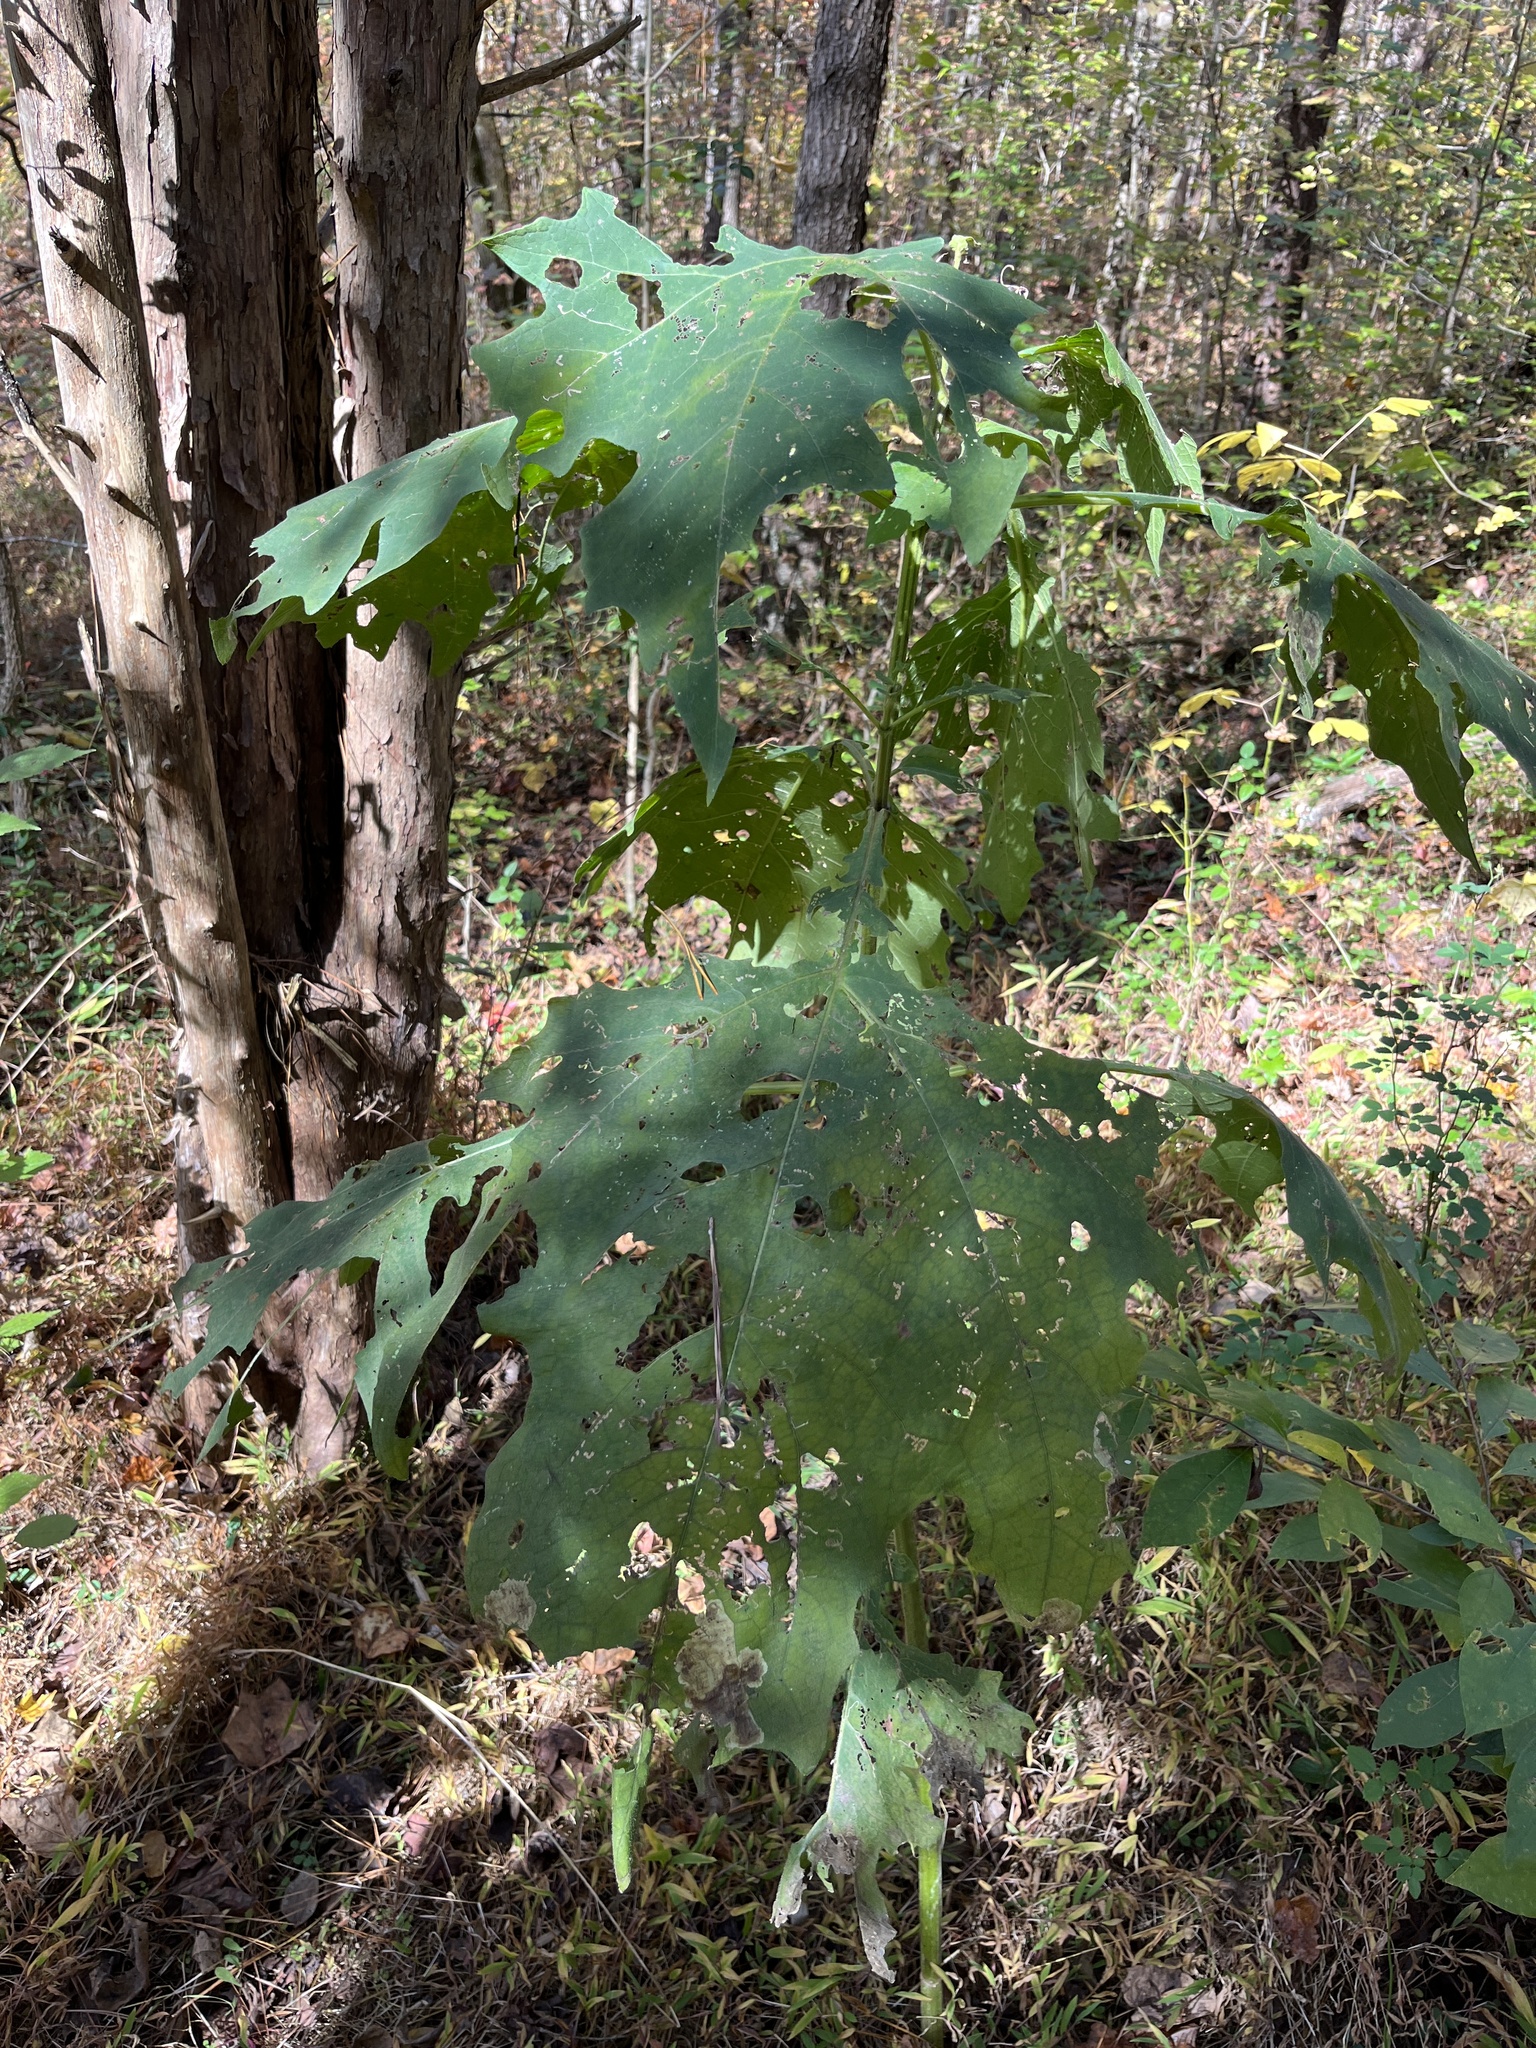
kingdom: Plantae
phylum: Tracheophyta
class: Magnoliopsida
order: Asterales
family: Asteraceae
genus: Smallanthus
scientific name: Smallanthus uvedalia
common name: Bear's-foot
